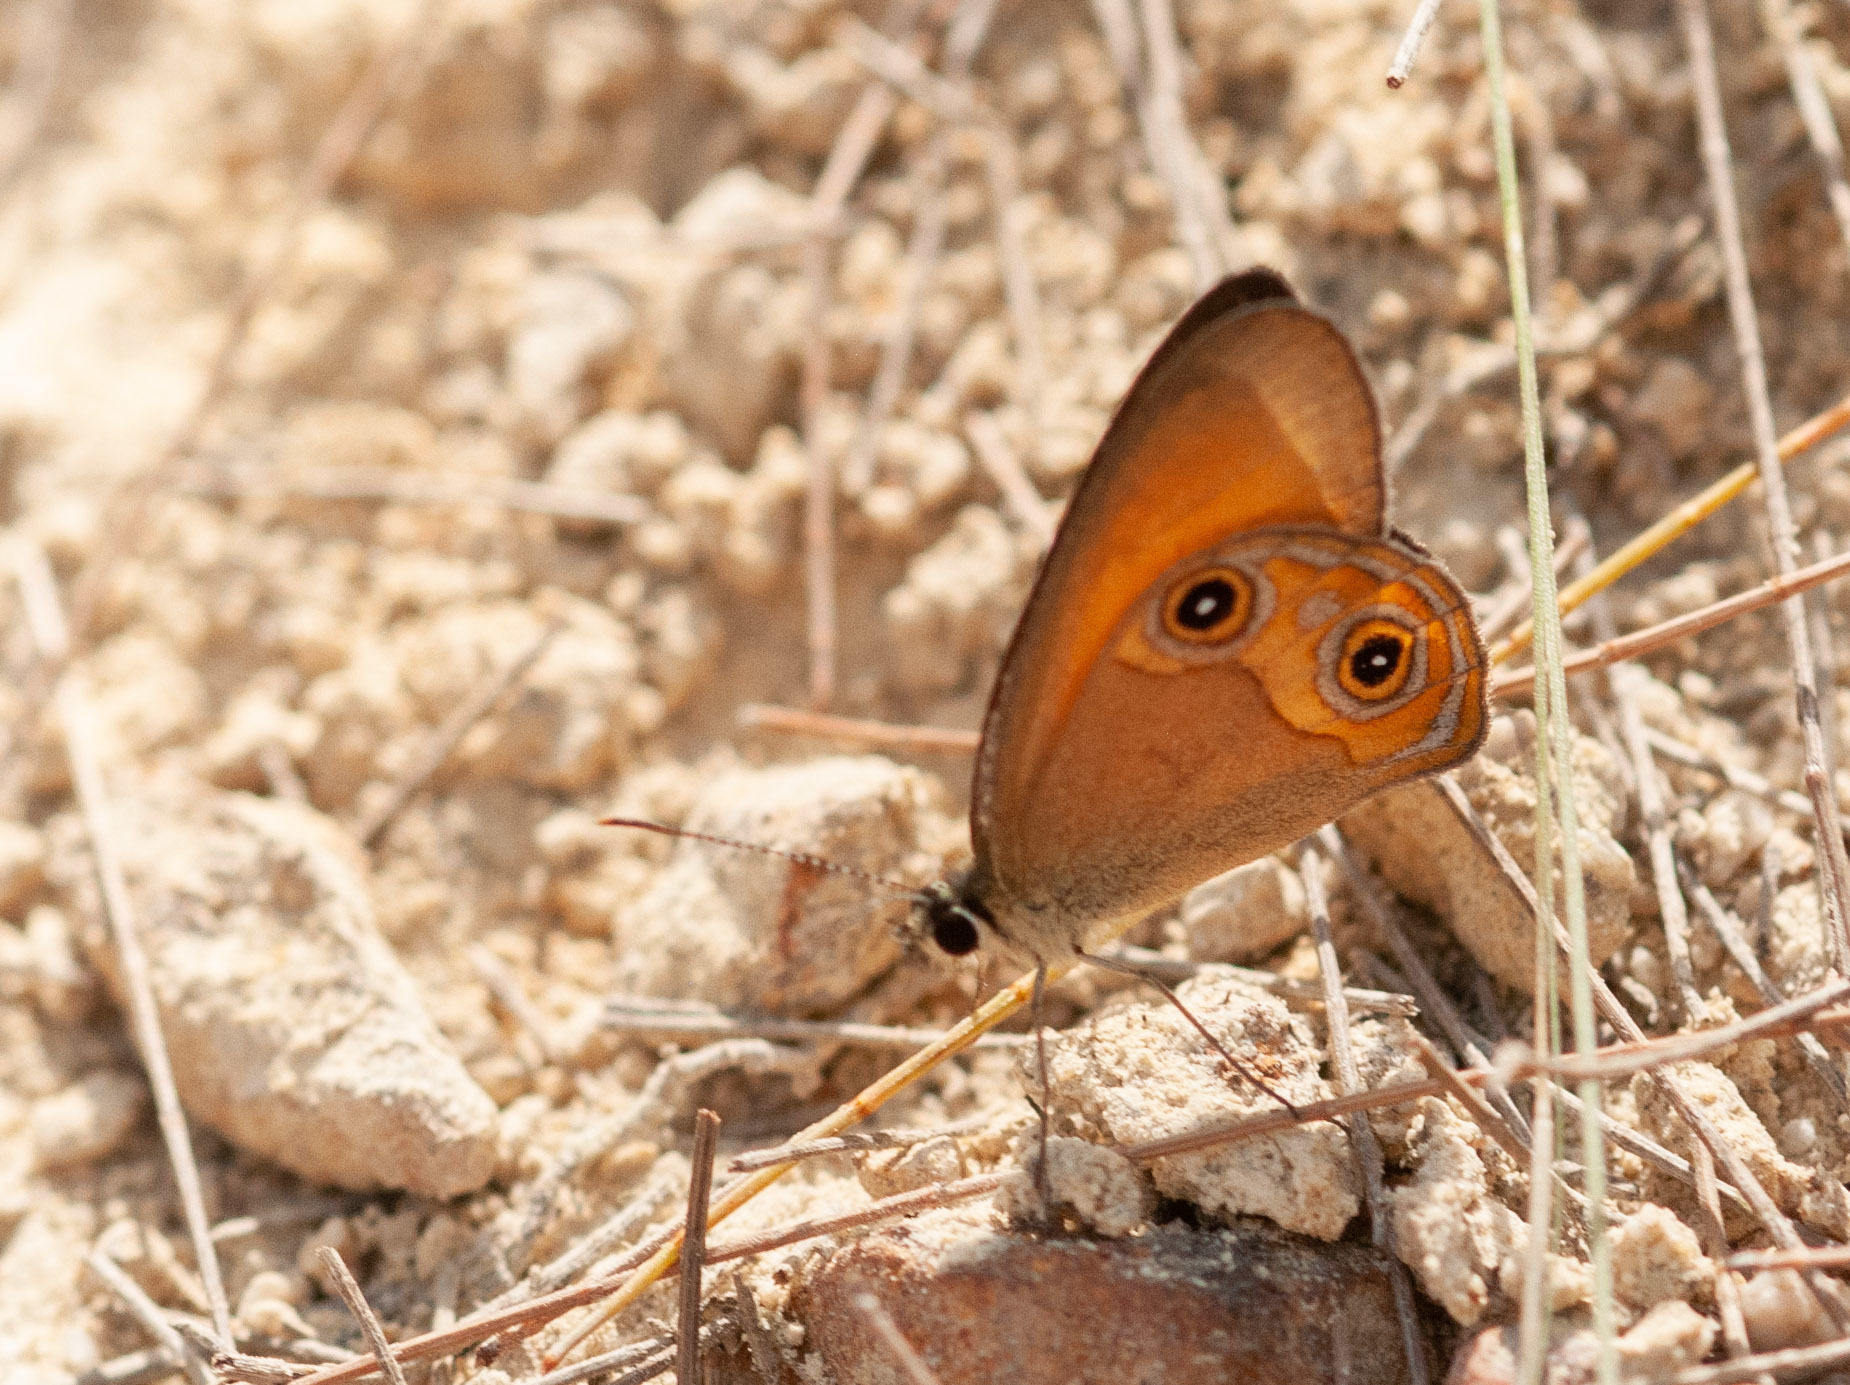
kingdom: Animalia
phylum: Arthropoda
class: Insecta
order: Lepidoptera
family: Nymphalidae
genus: Hypocysta
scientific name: Hypocysta adiante
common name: Orange ringlet
